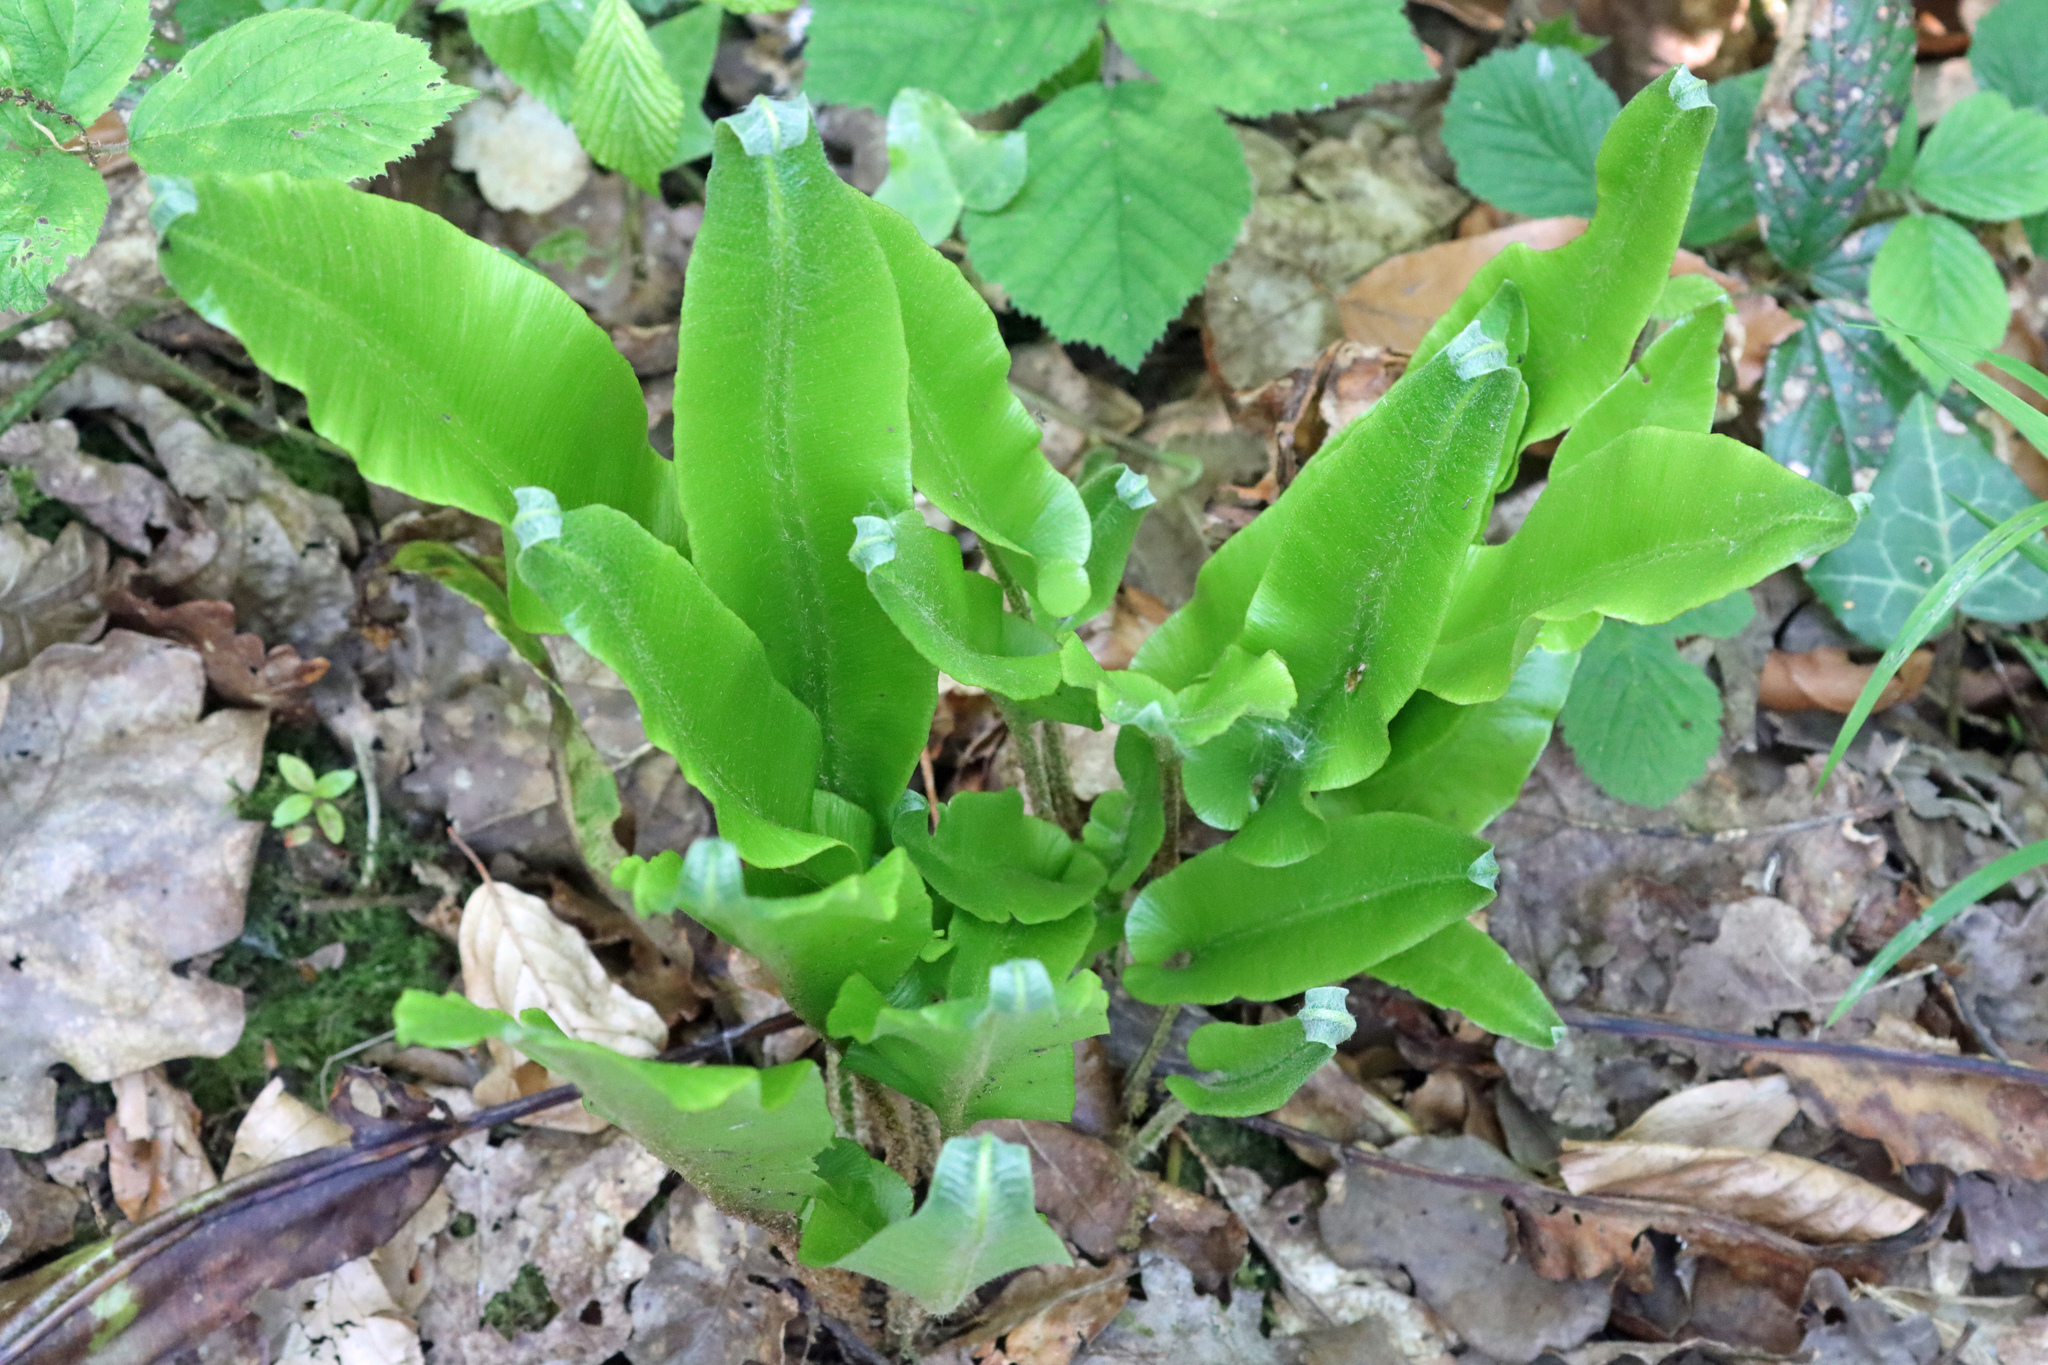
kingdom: Plantae
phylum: Tracheophyta
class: Polypodiopsida
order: Polypodiales
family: Aspleniaceae
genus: Asplenium
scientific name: Asplenium scolopendrium
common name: Hart's-tongue fern
